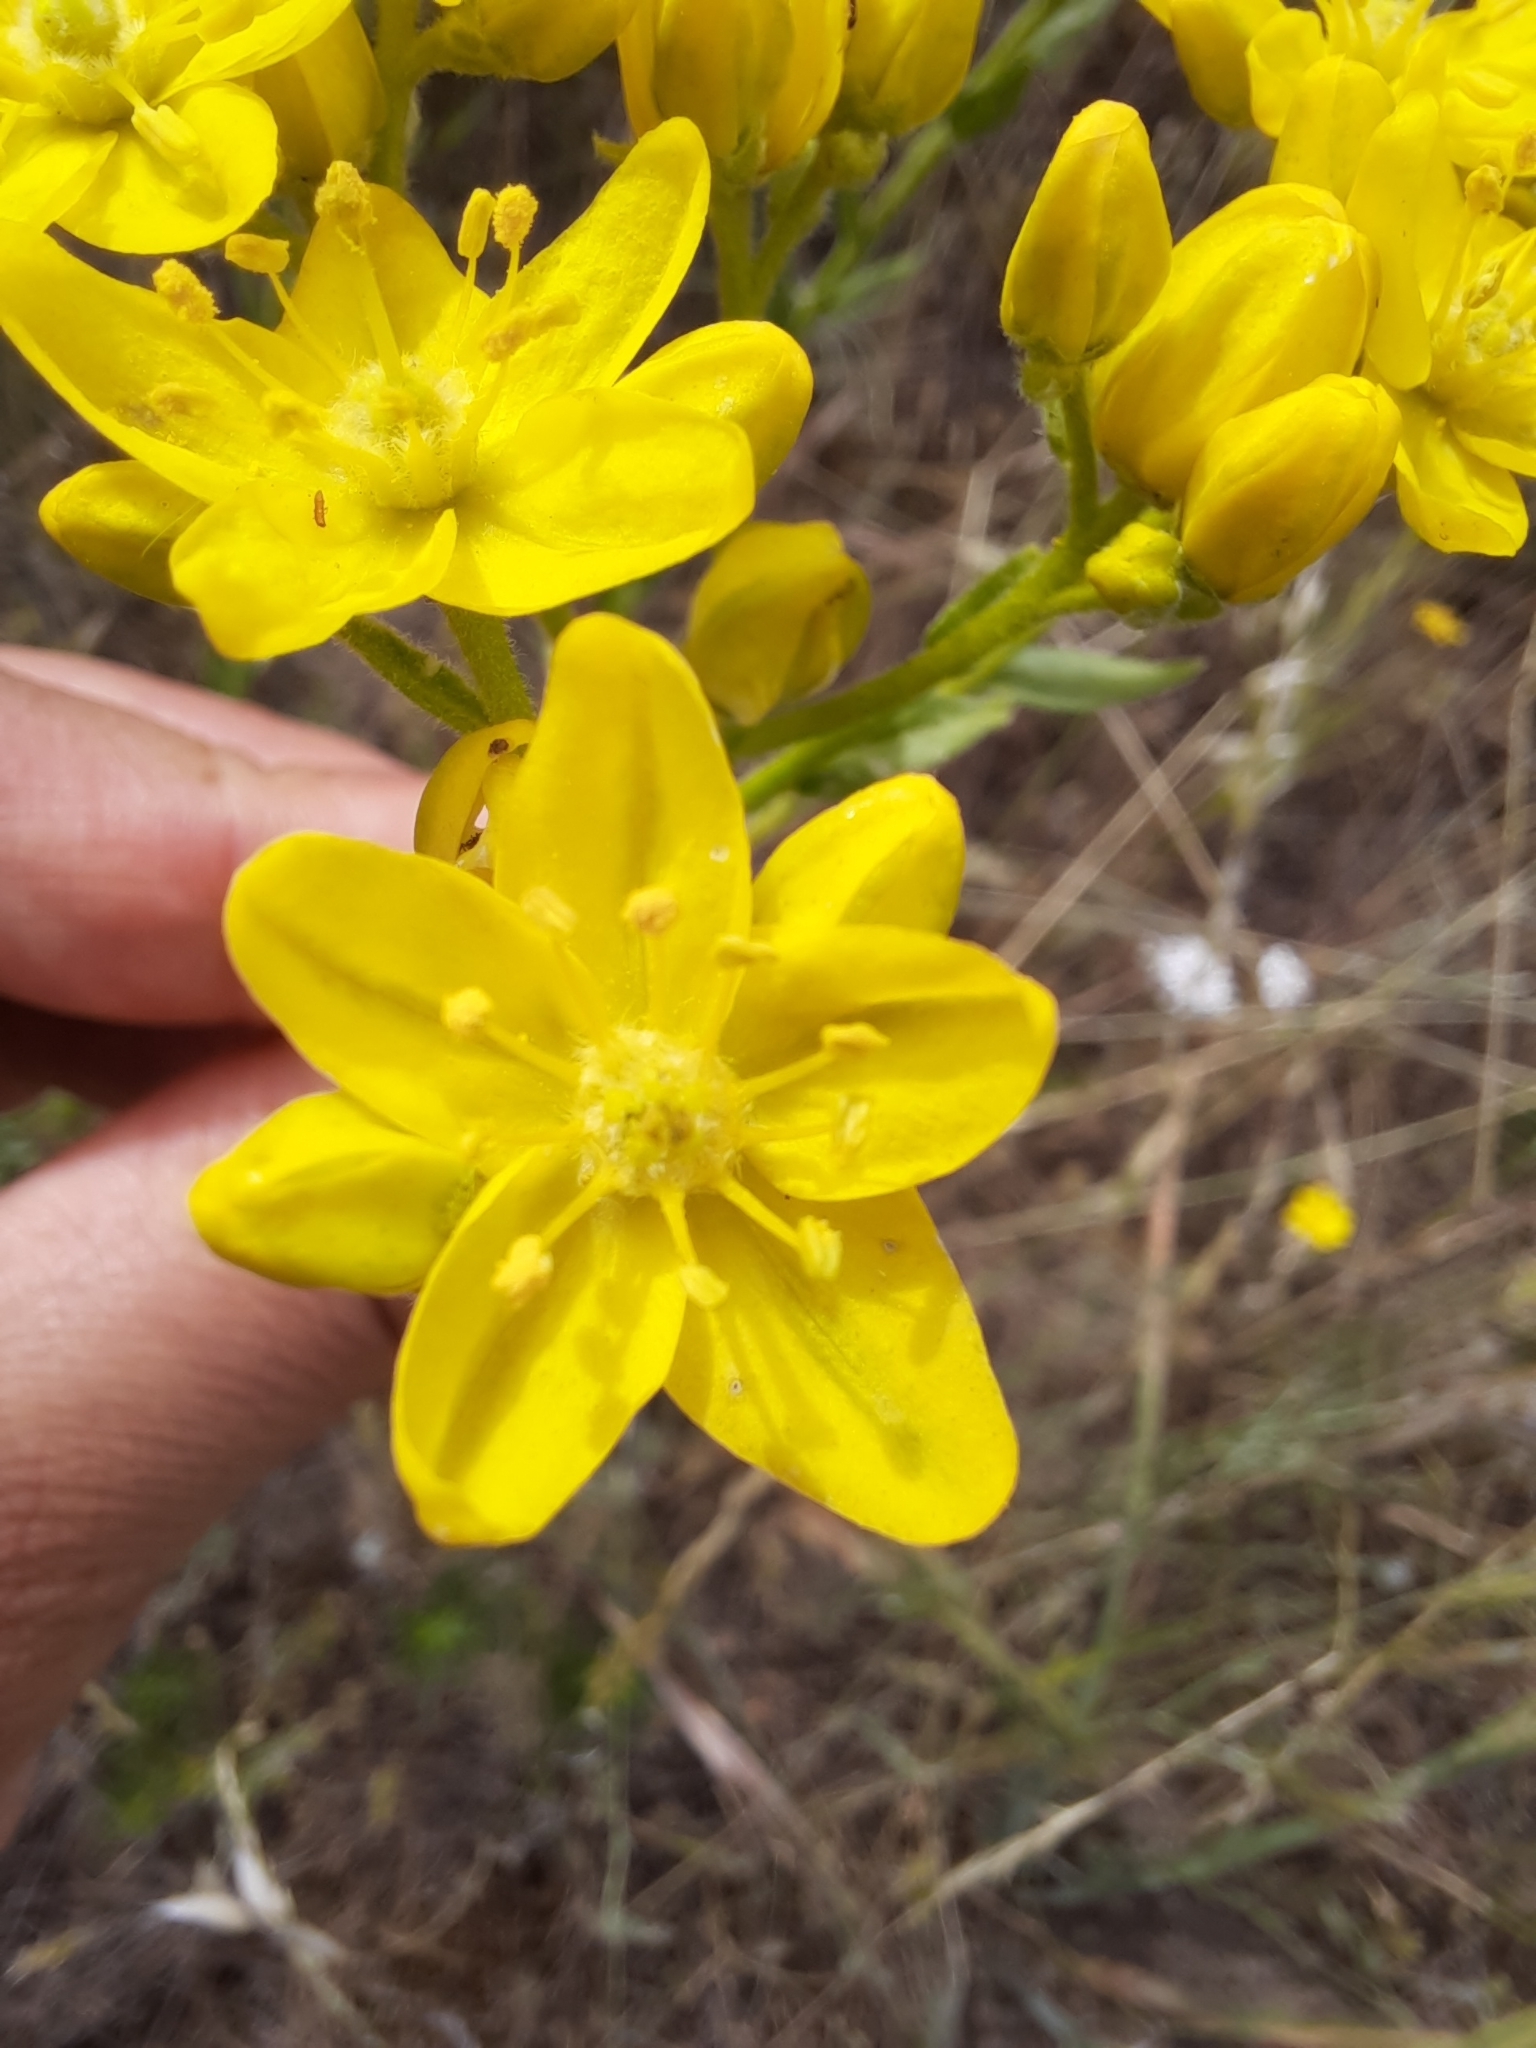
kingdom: Plantae
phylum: Tracheophyta
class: Magnoliopsida
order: Sapindales
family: Rutaceae
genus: Haplophyllum
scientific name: Haplophyllum linifolium
